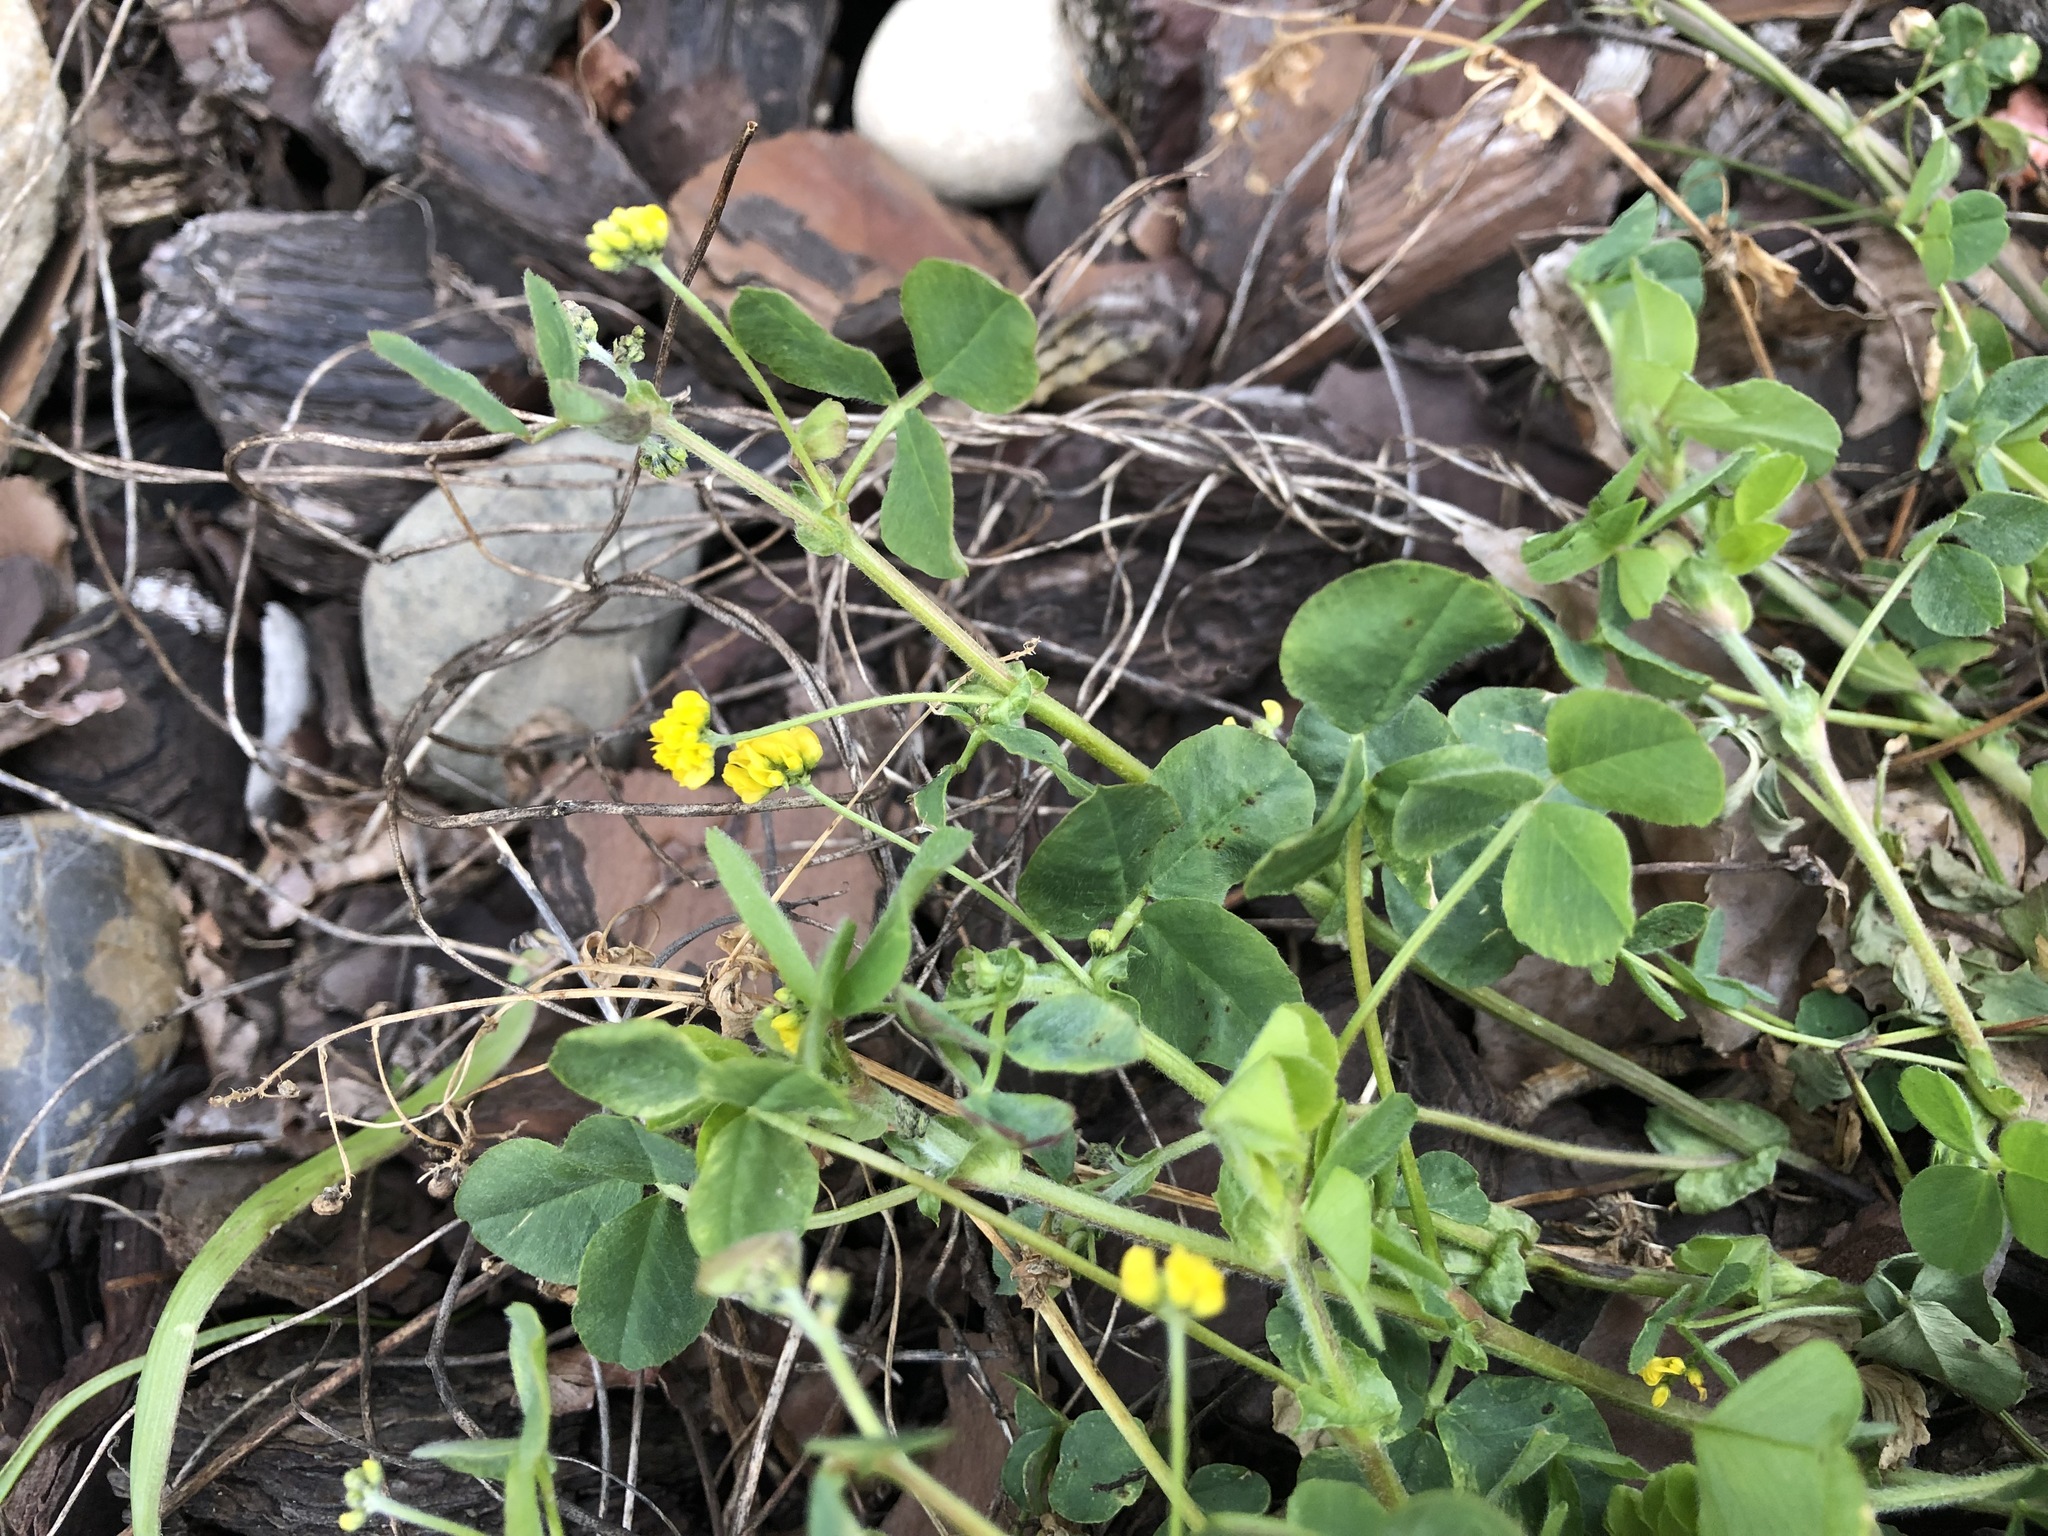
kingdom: Plantae
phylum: Tracheophyta
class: Magnoliopsida
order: Fabales
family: Fabaceae
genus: Medicago
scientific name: Medicago lupulina
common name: Black medick
